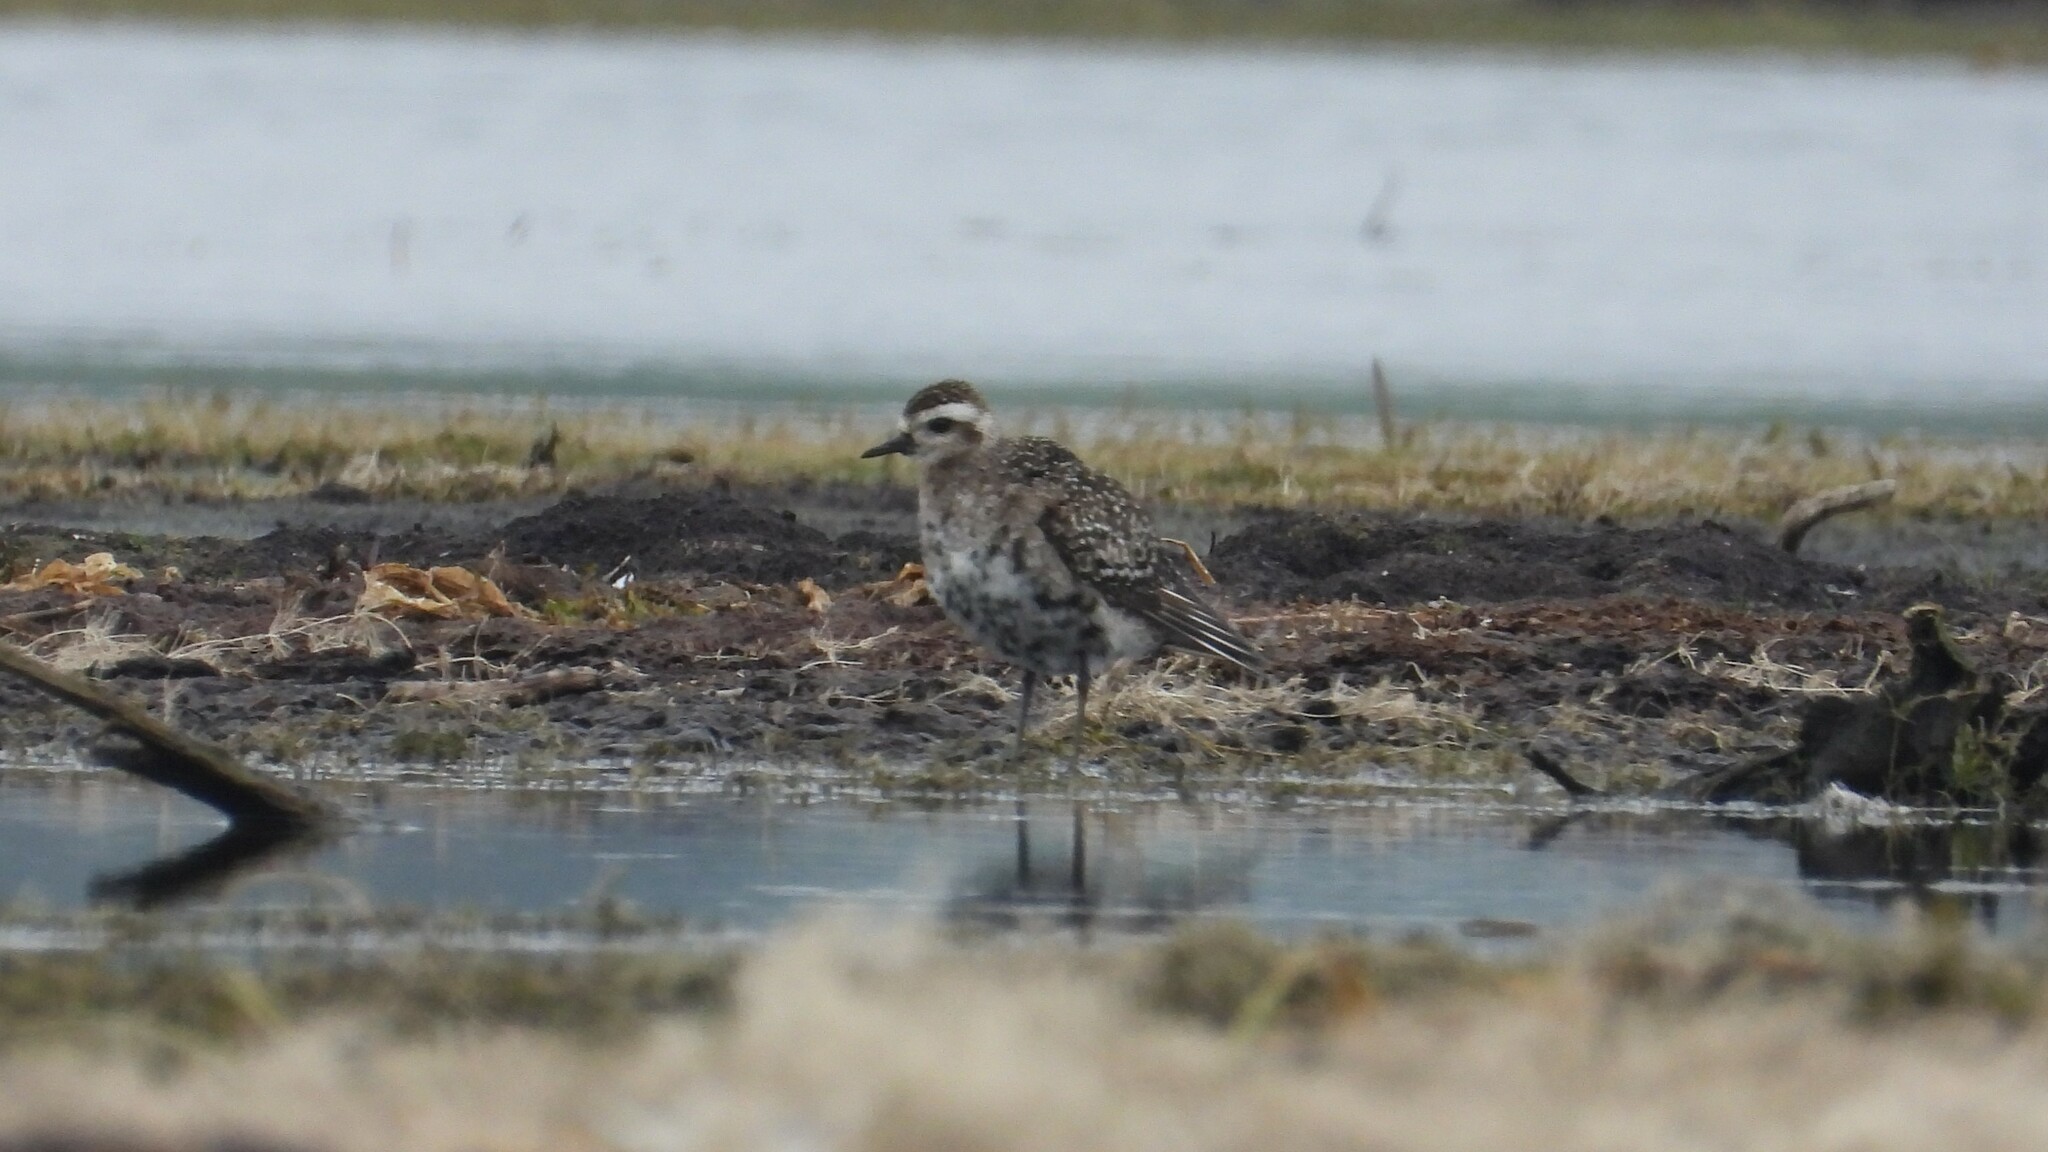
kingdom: Animalia
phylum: Chordata
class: Aves
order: Charadriiformes
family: Charadriidae
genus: Pluvialis
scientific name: Pluvialis dominica
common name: American golden plover
